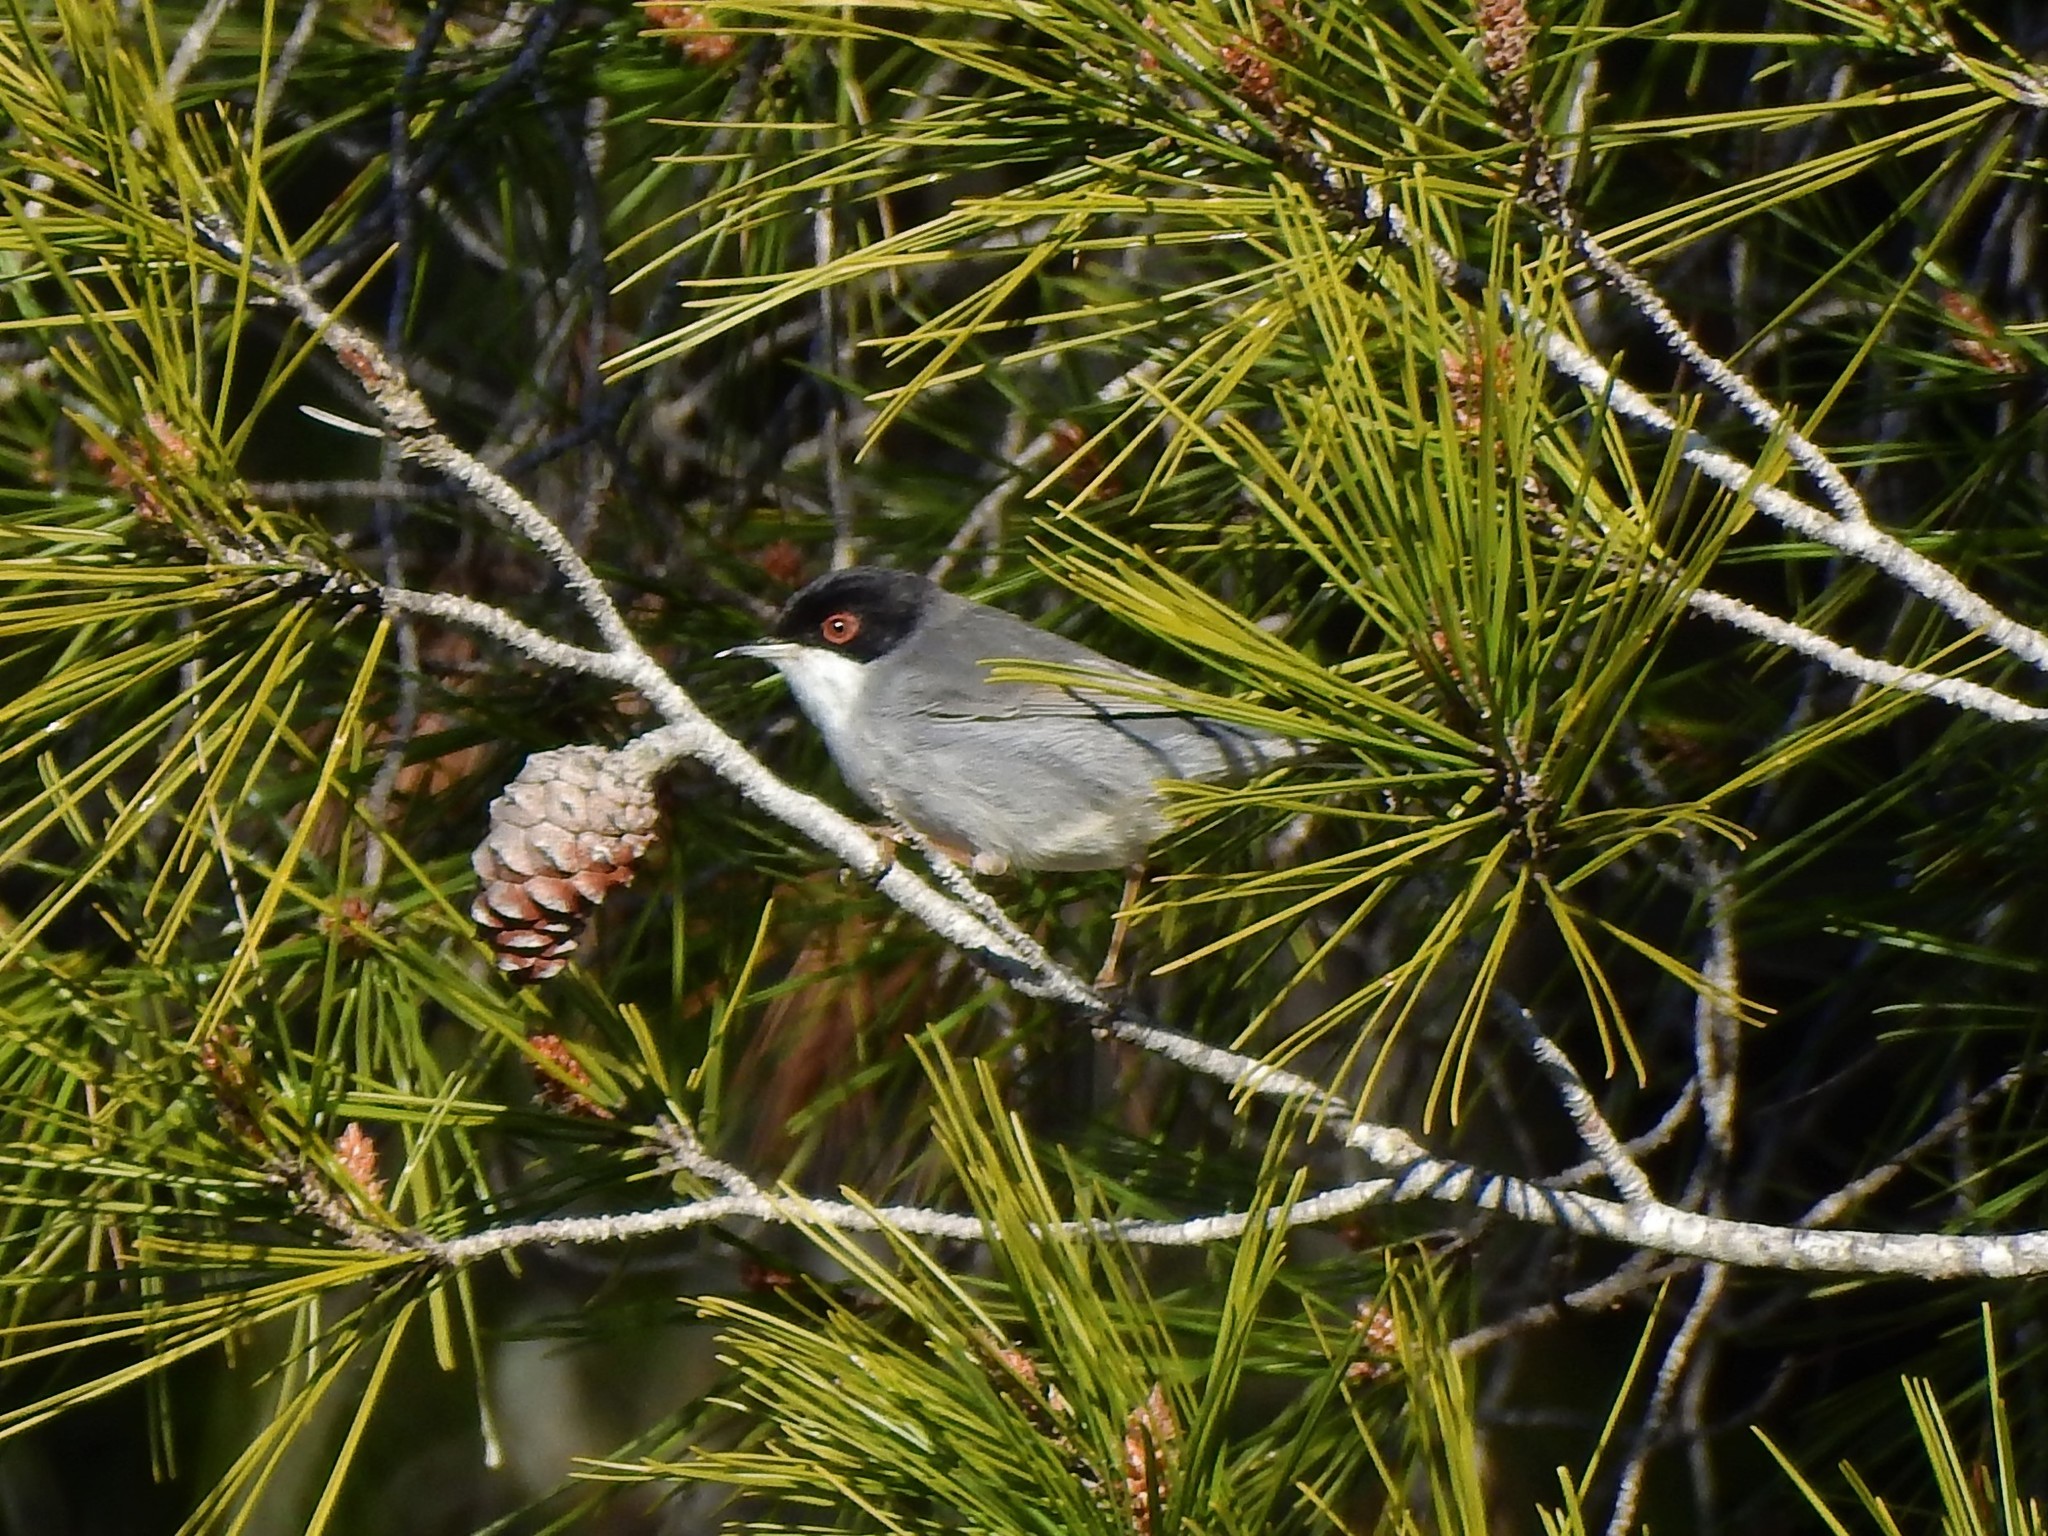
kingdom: Animalia
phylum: Chordata
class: Aves
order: Passeriformes
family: Sylviidae
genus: Curruca
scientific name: Curruca melanocephala
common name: Sardinian warbler
